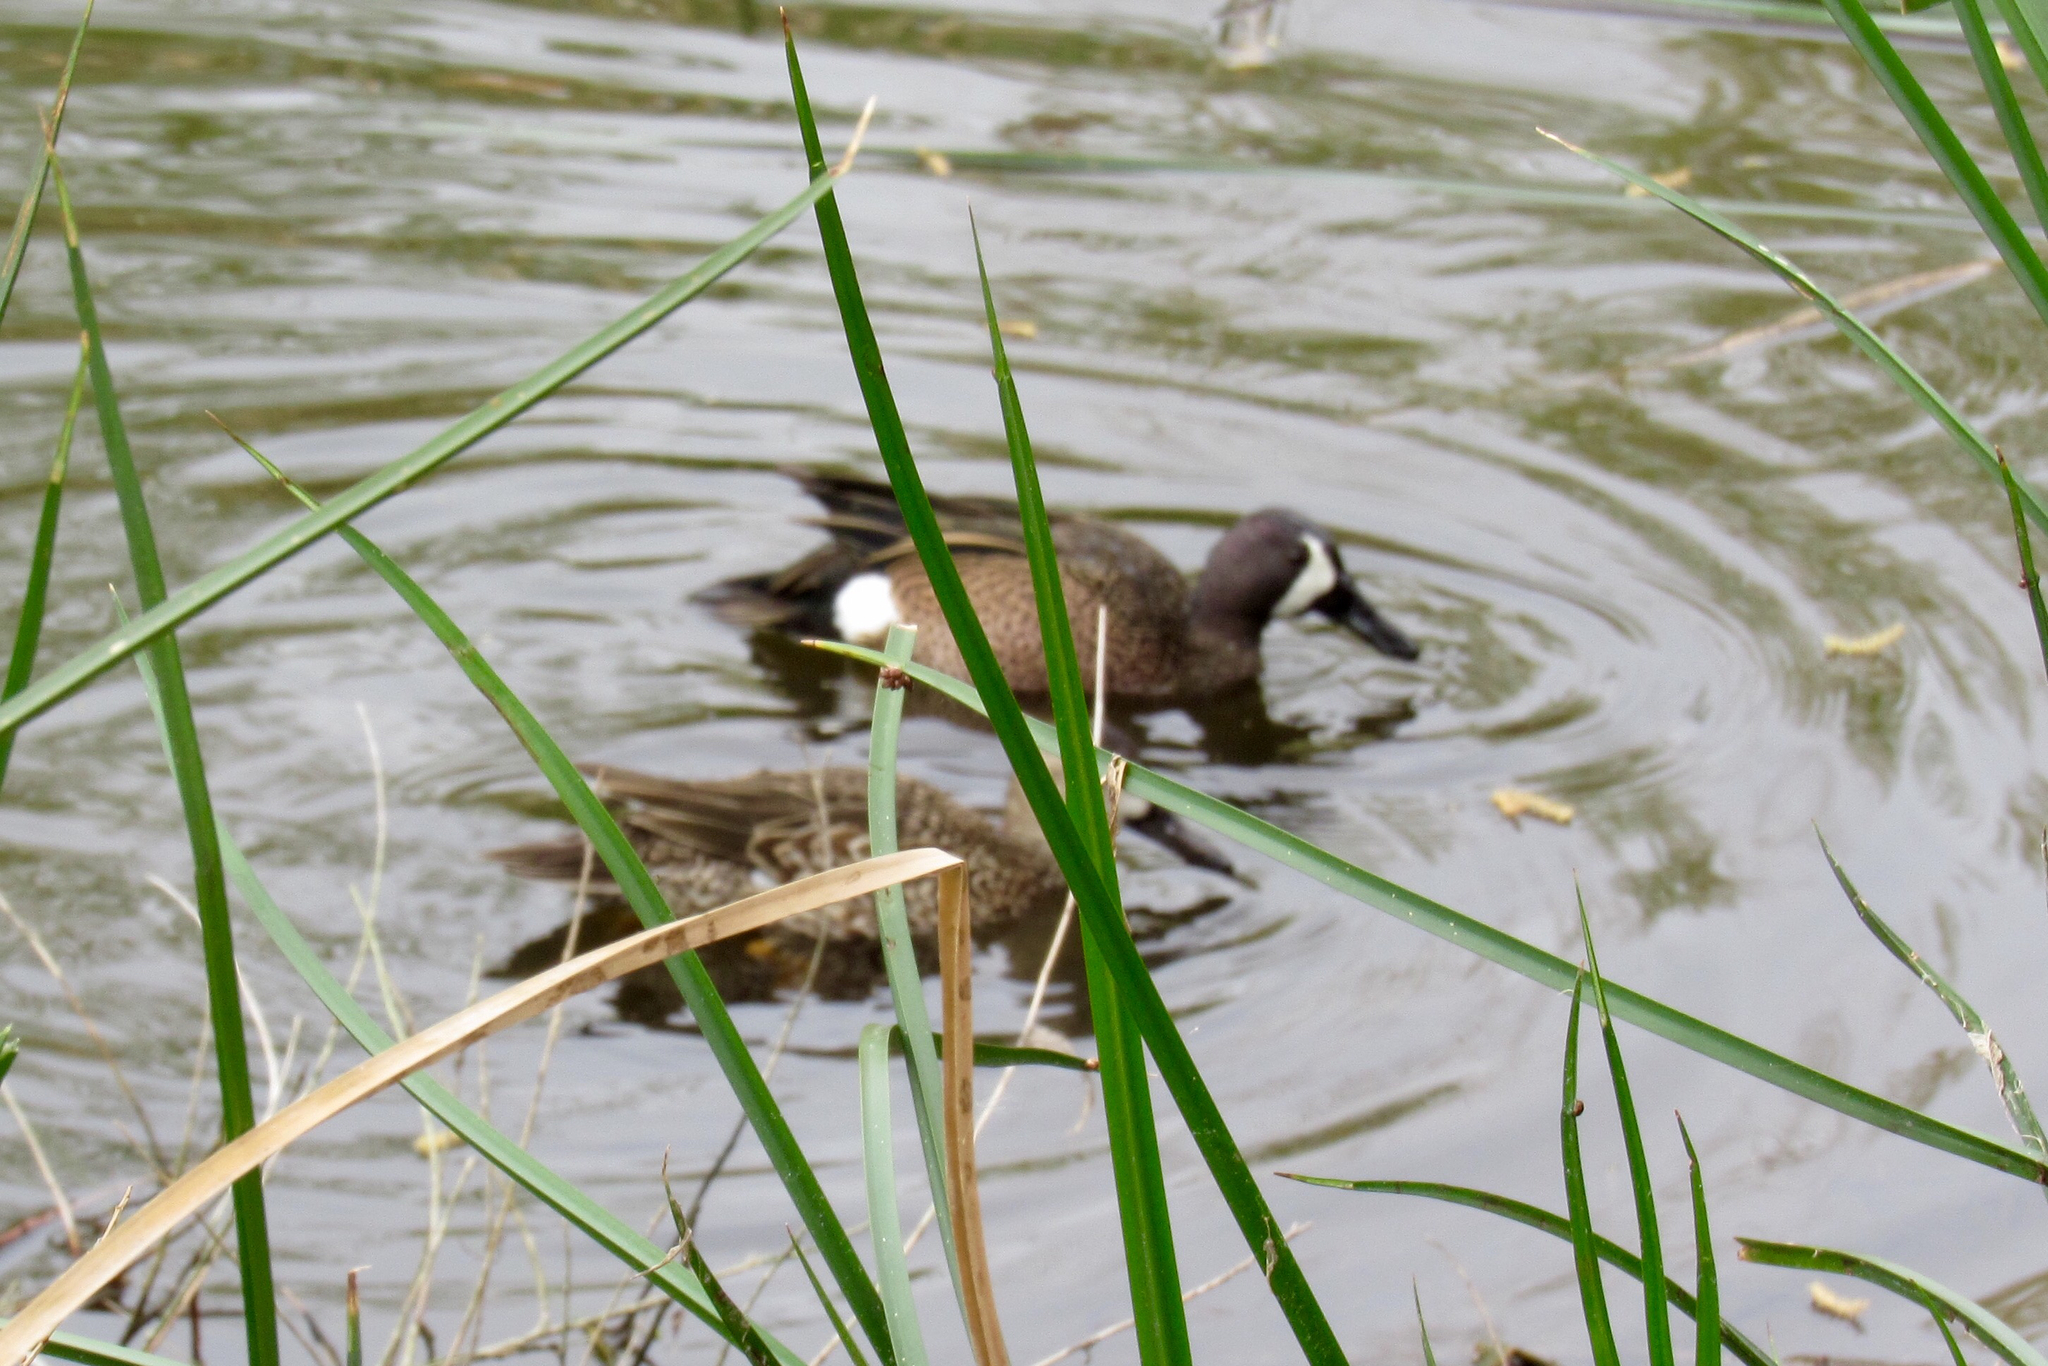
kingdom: Animalia
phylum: Chordata
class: Aves
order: Anseriformes
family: Anatidae
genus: Spatula
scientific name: Spatula discors
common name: Blue-winged teal
